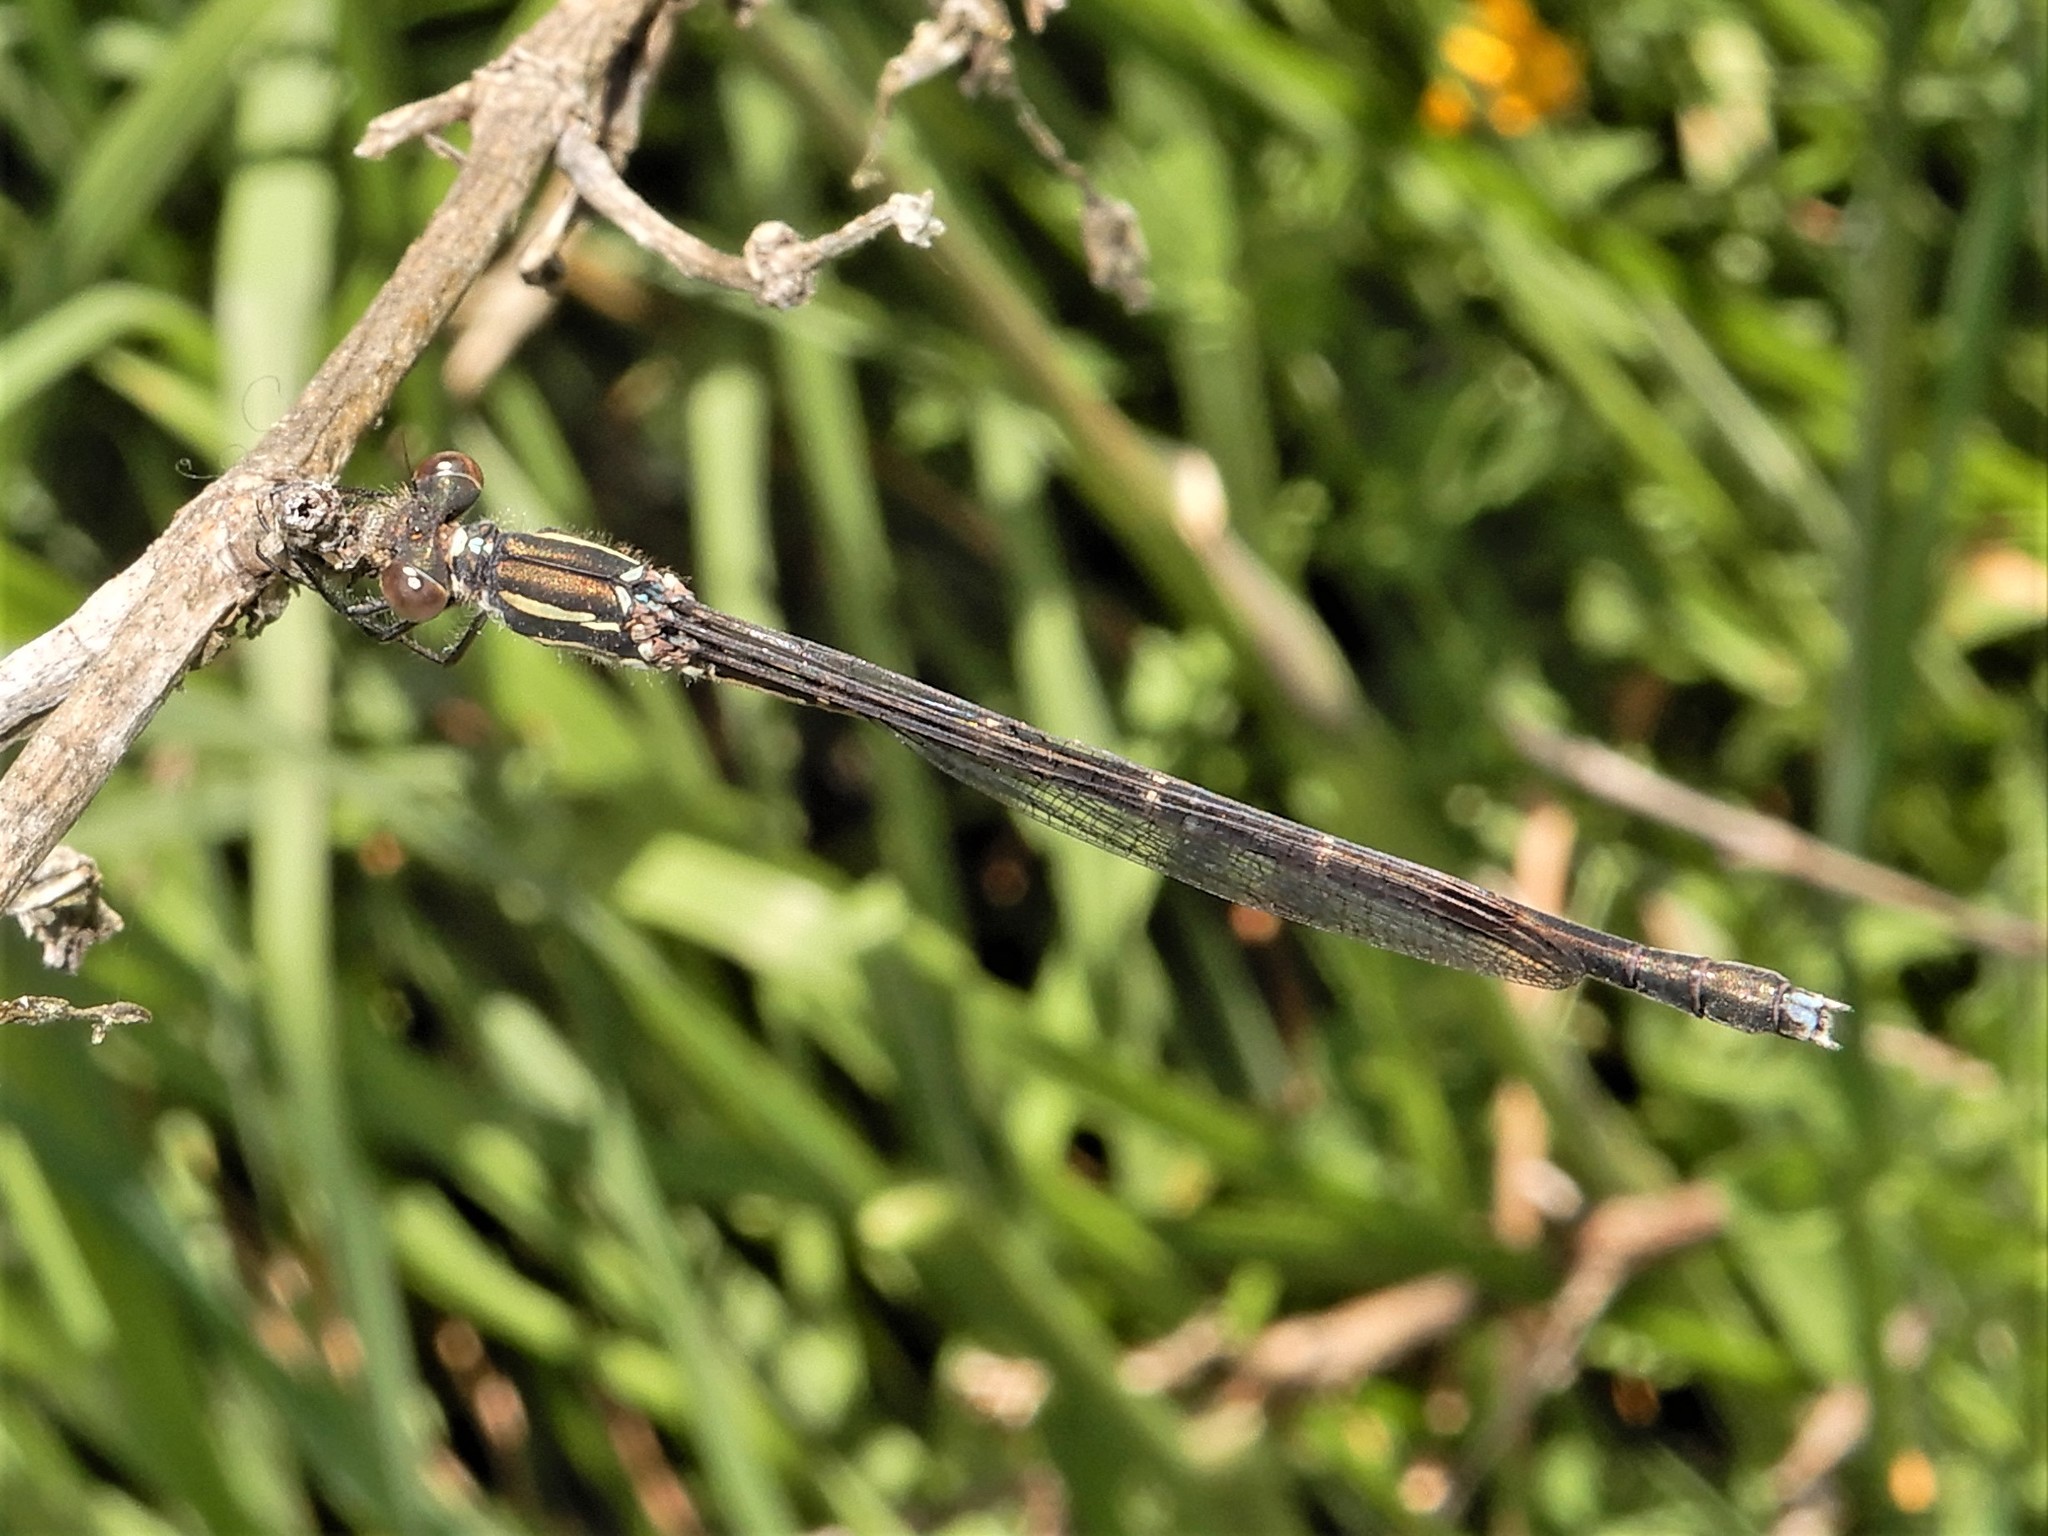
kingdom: Animalia
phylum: Arthropoda
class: Insecta
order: Odonata
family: Lestidae
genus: Austrolestes
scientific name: Austrolestes colensonis
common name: Blue damselfly
